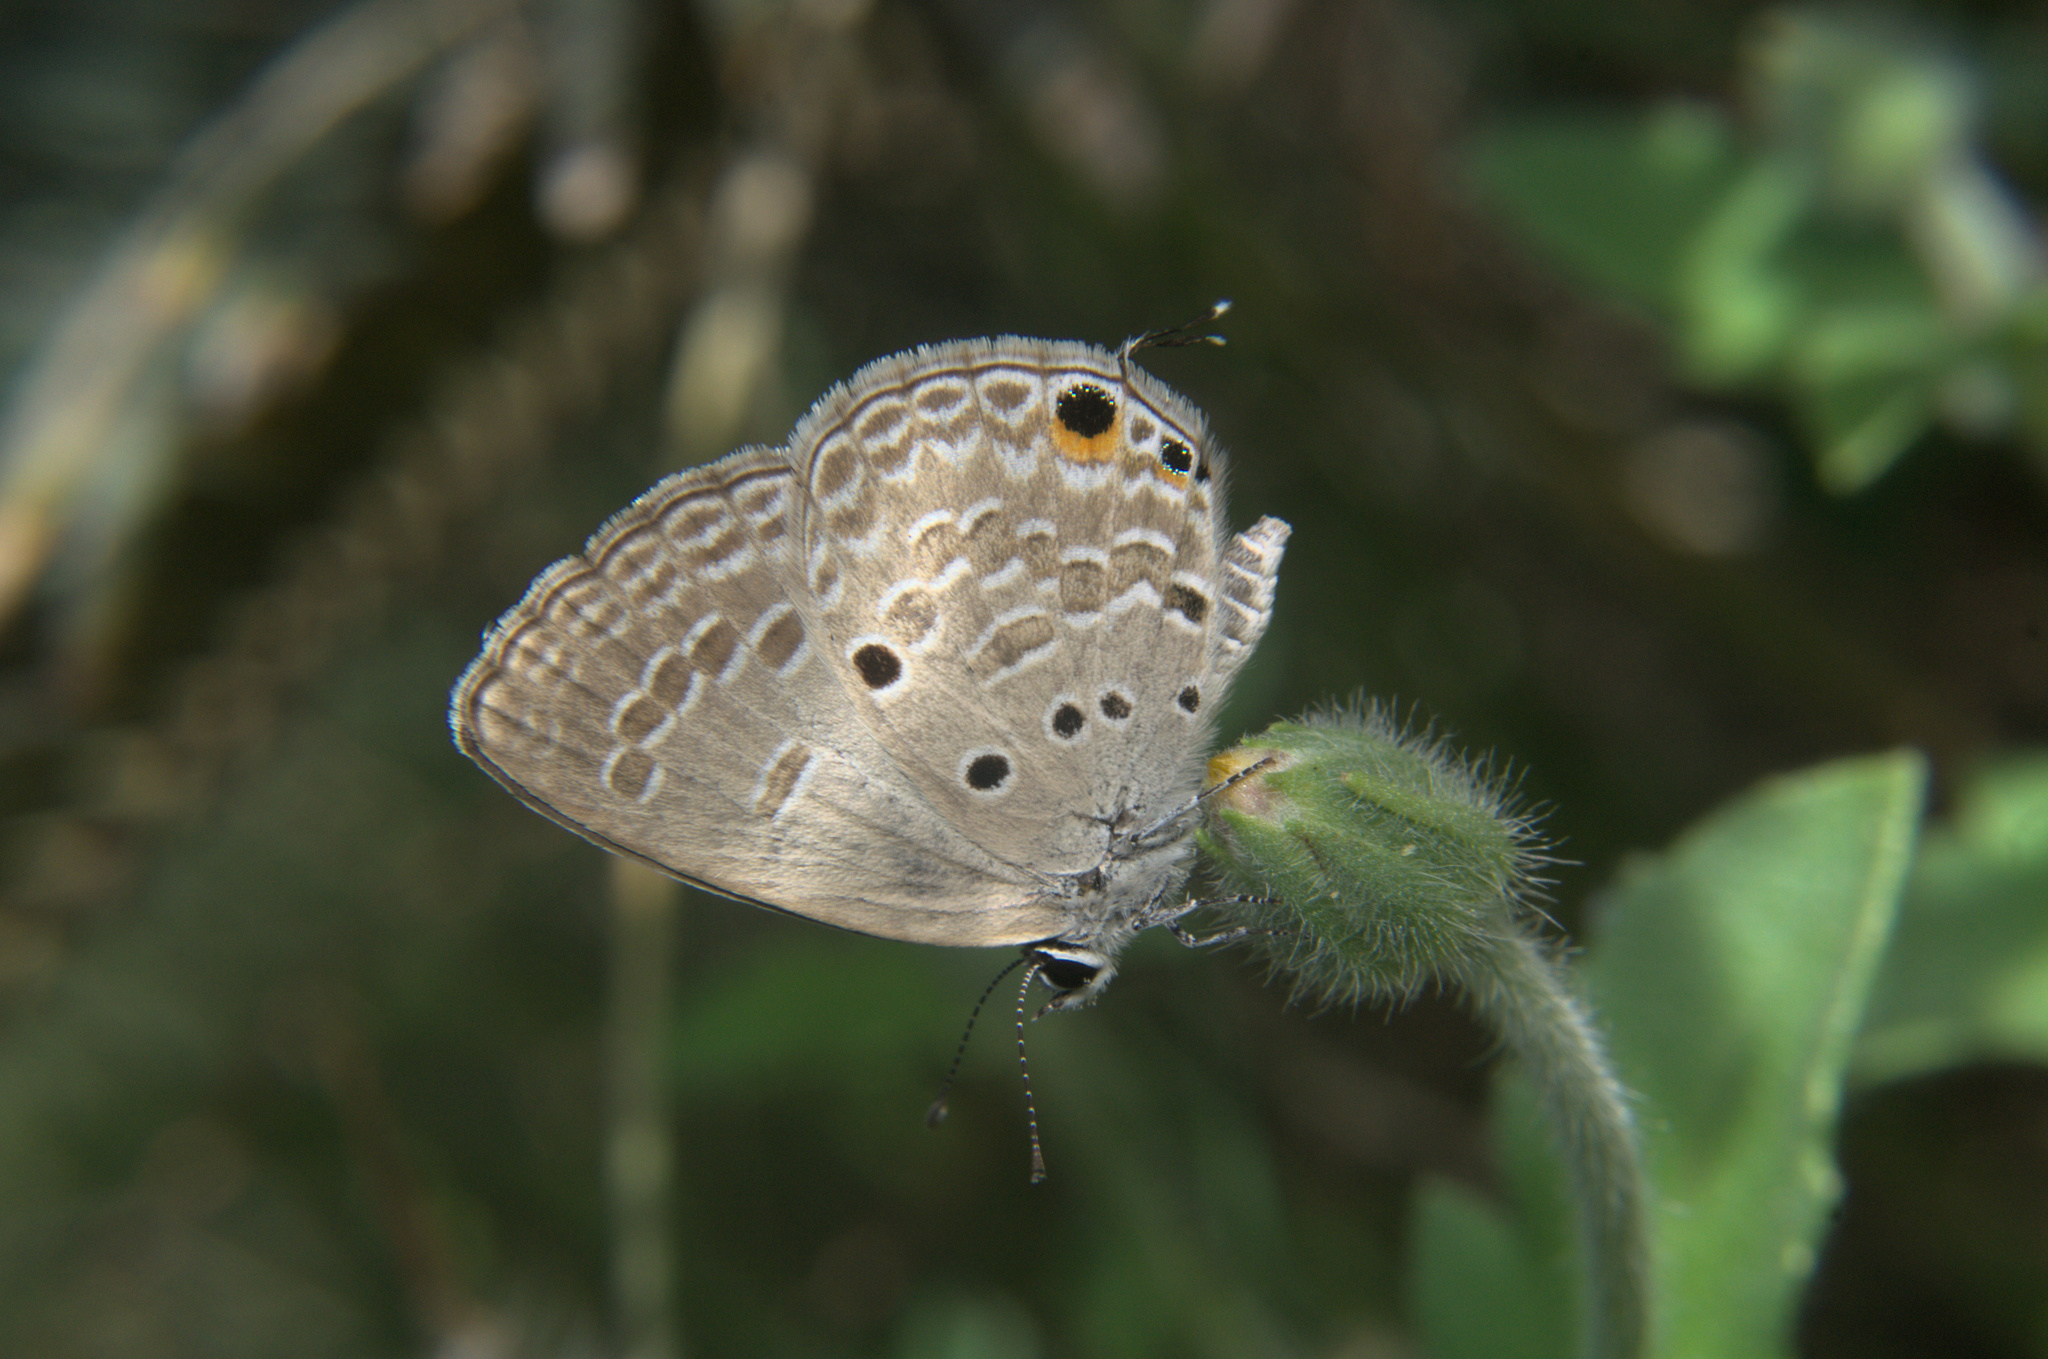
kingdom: Animalia
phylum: Arthropoda
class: Insecta
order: Lepidoptera
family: Lycaenidae
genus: Luthrodes
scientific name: Luthrodes pandava
